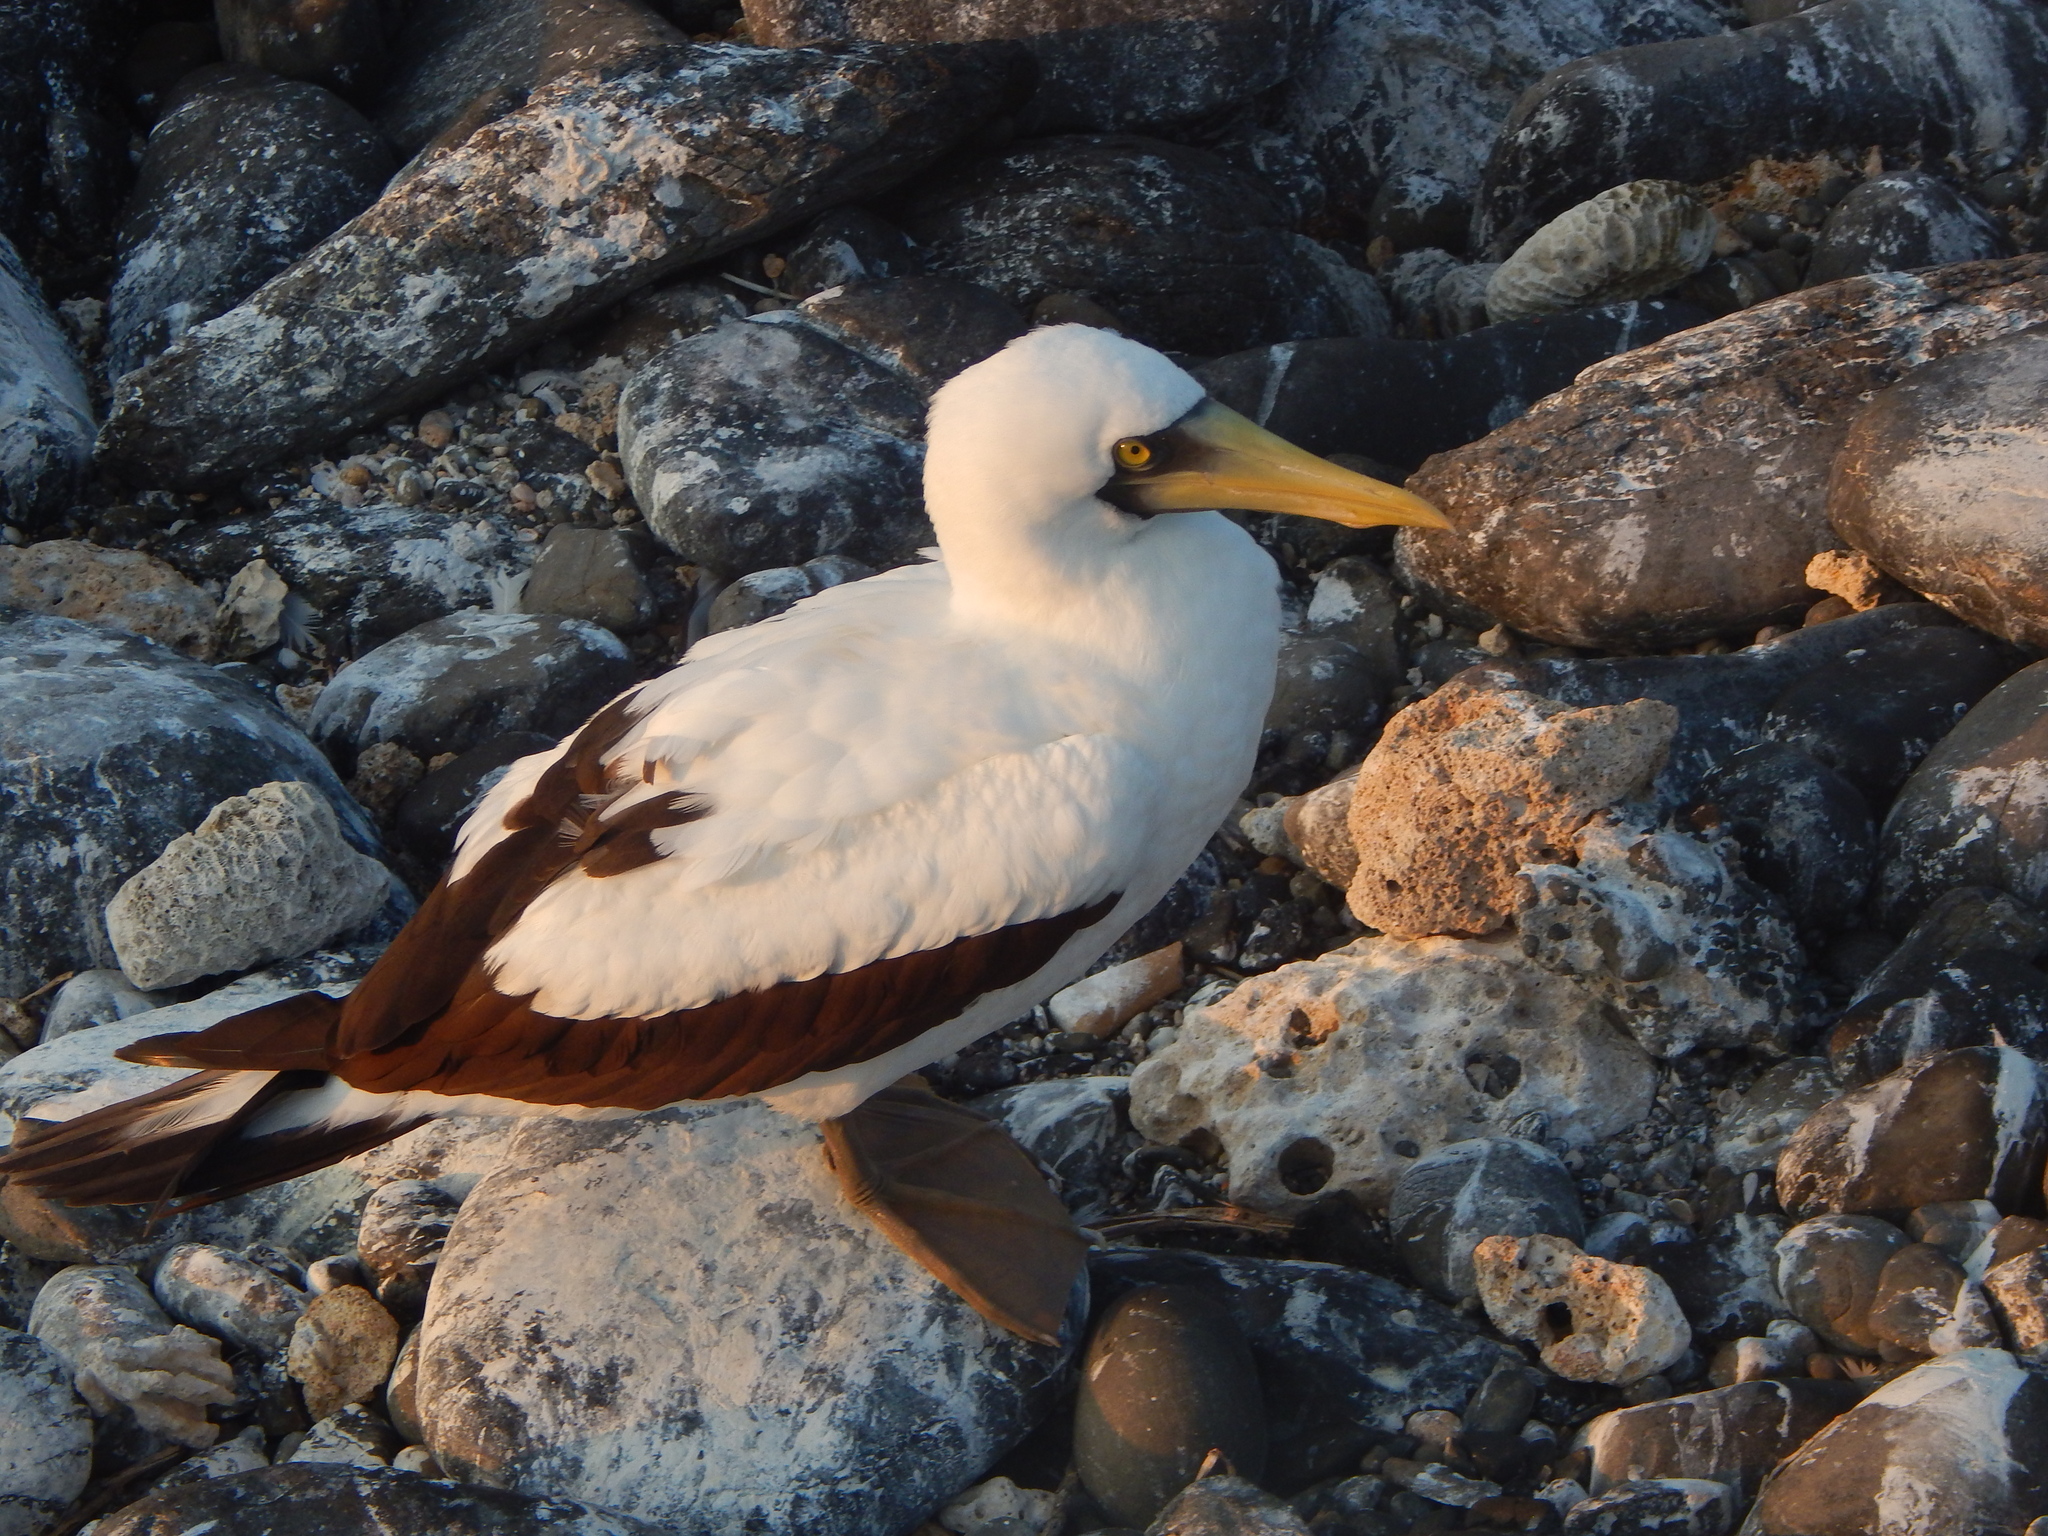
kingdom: Animalia
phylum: Chordata
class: Aves
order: Suliformes
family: Sulidae
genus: Sula
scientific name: Sula dactylatra
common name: Masked booby
